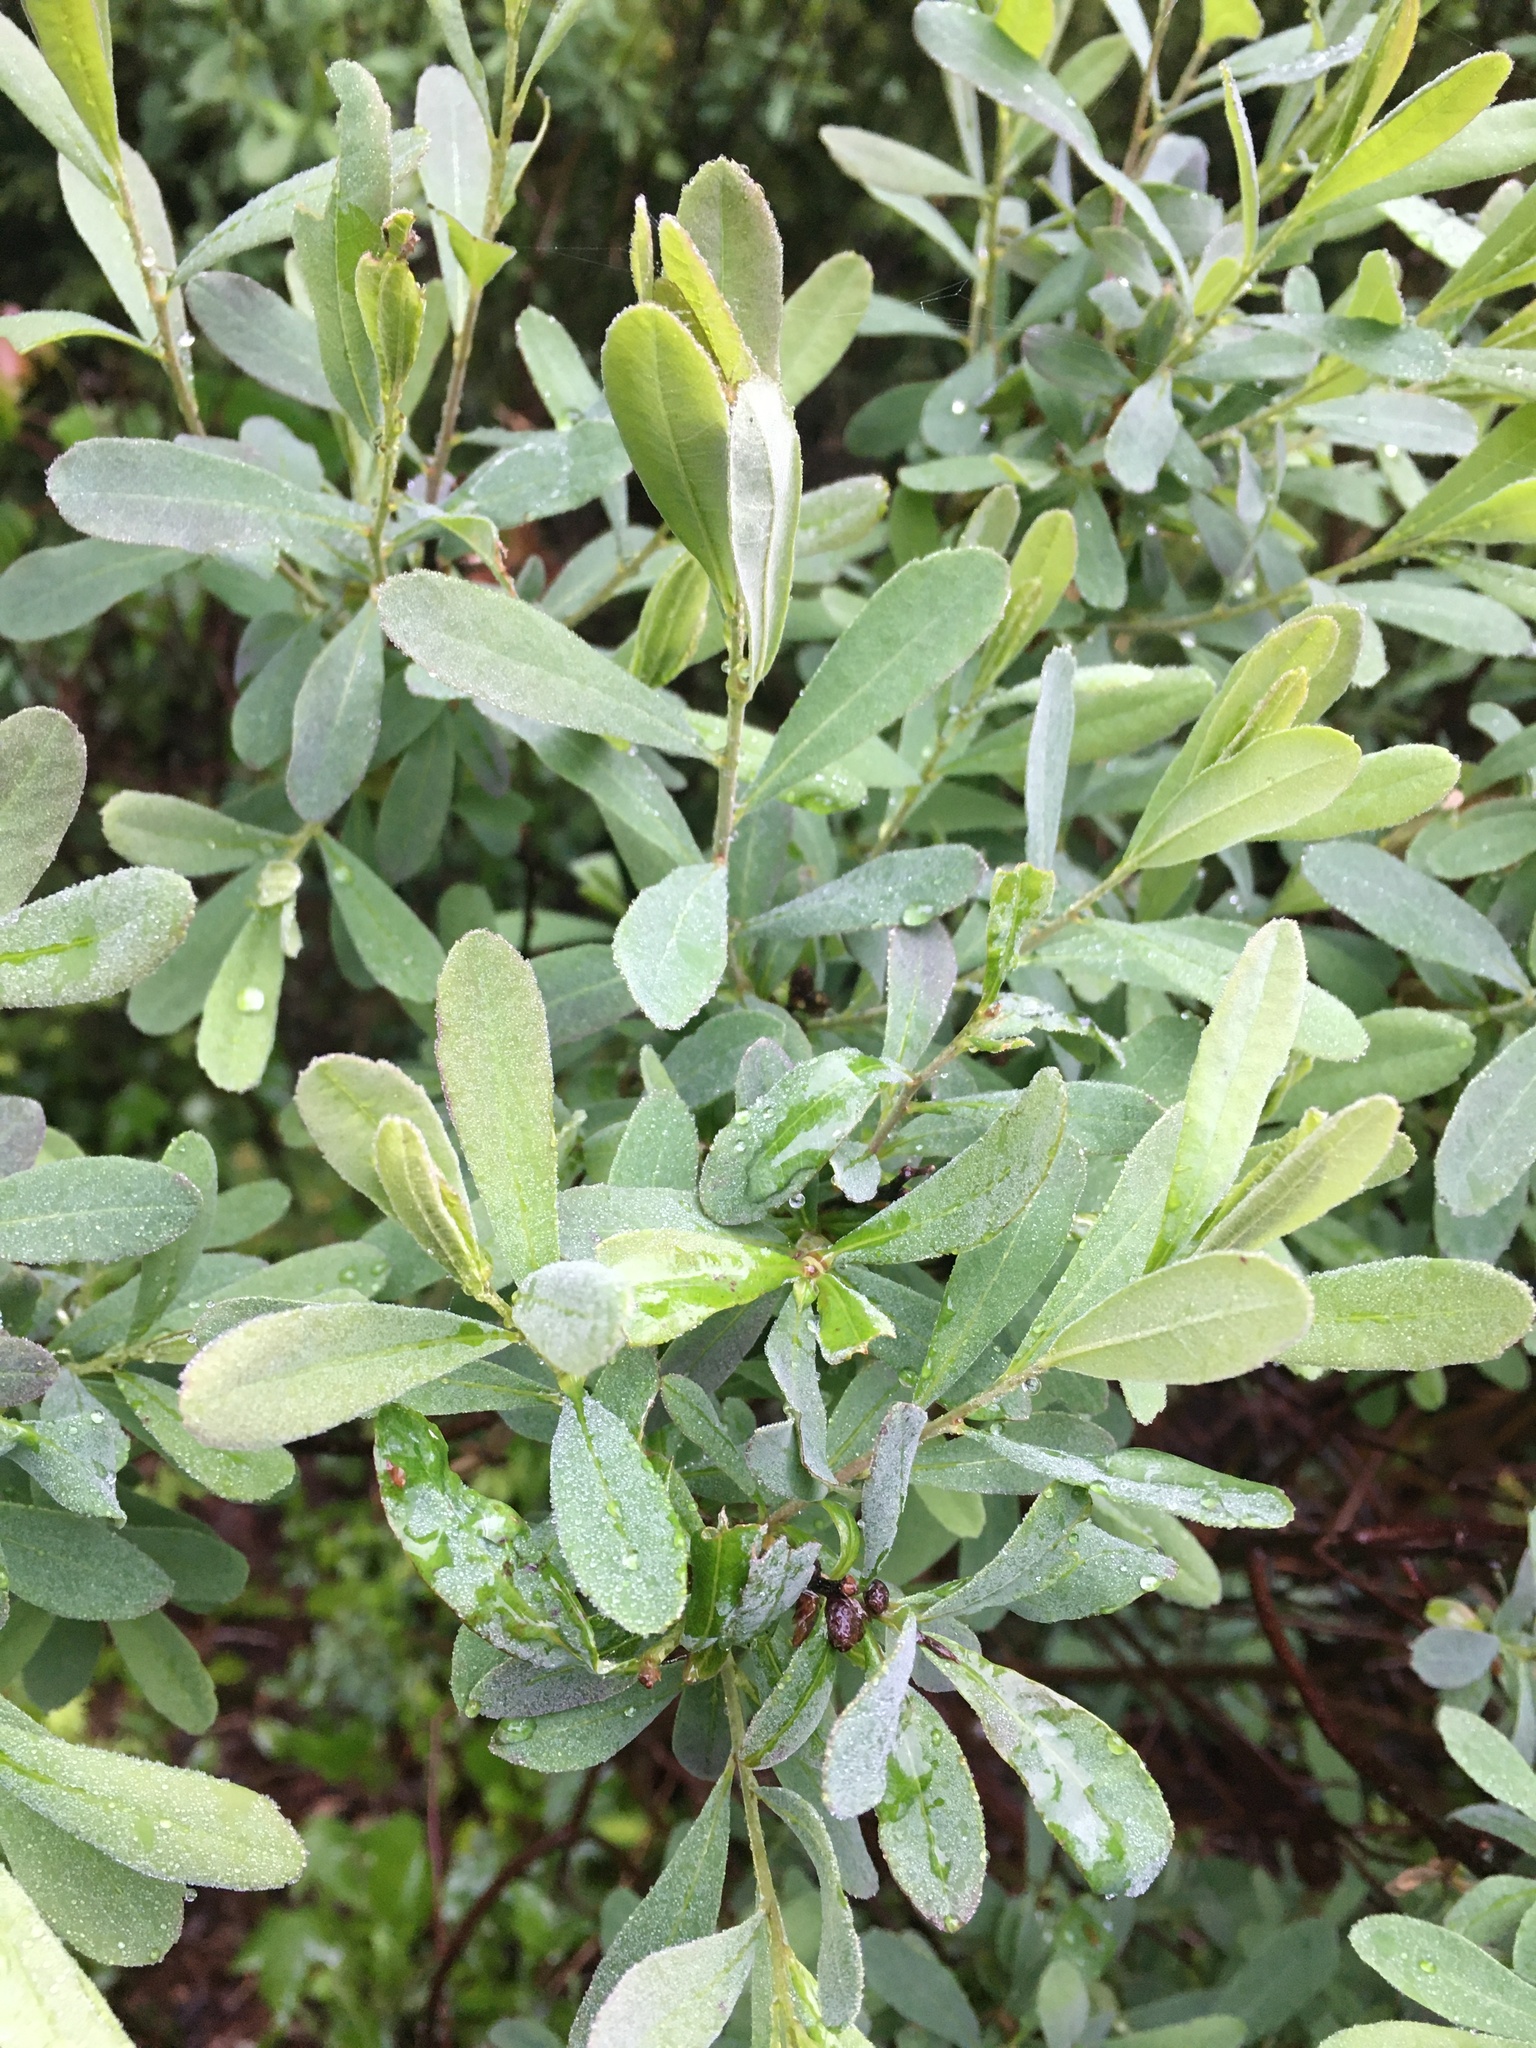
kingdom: Plantae
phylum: Tracheophyta
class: Magnoliopsida
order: Fagales
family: Myricaceae
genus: Myrica
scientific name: Myrica gale
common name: Sweet gale
